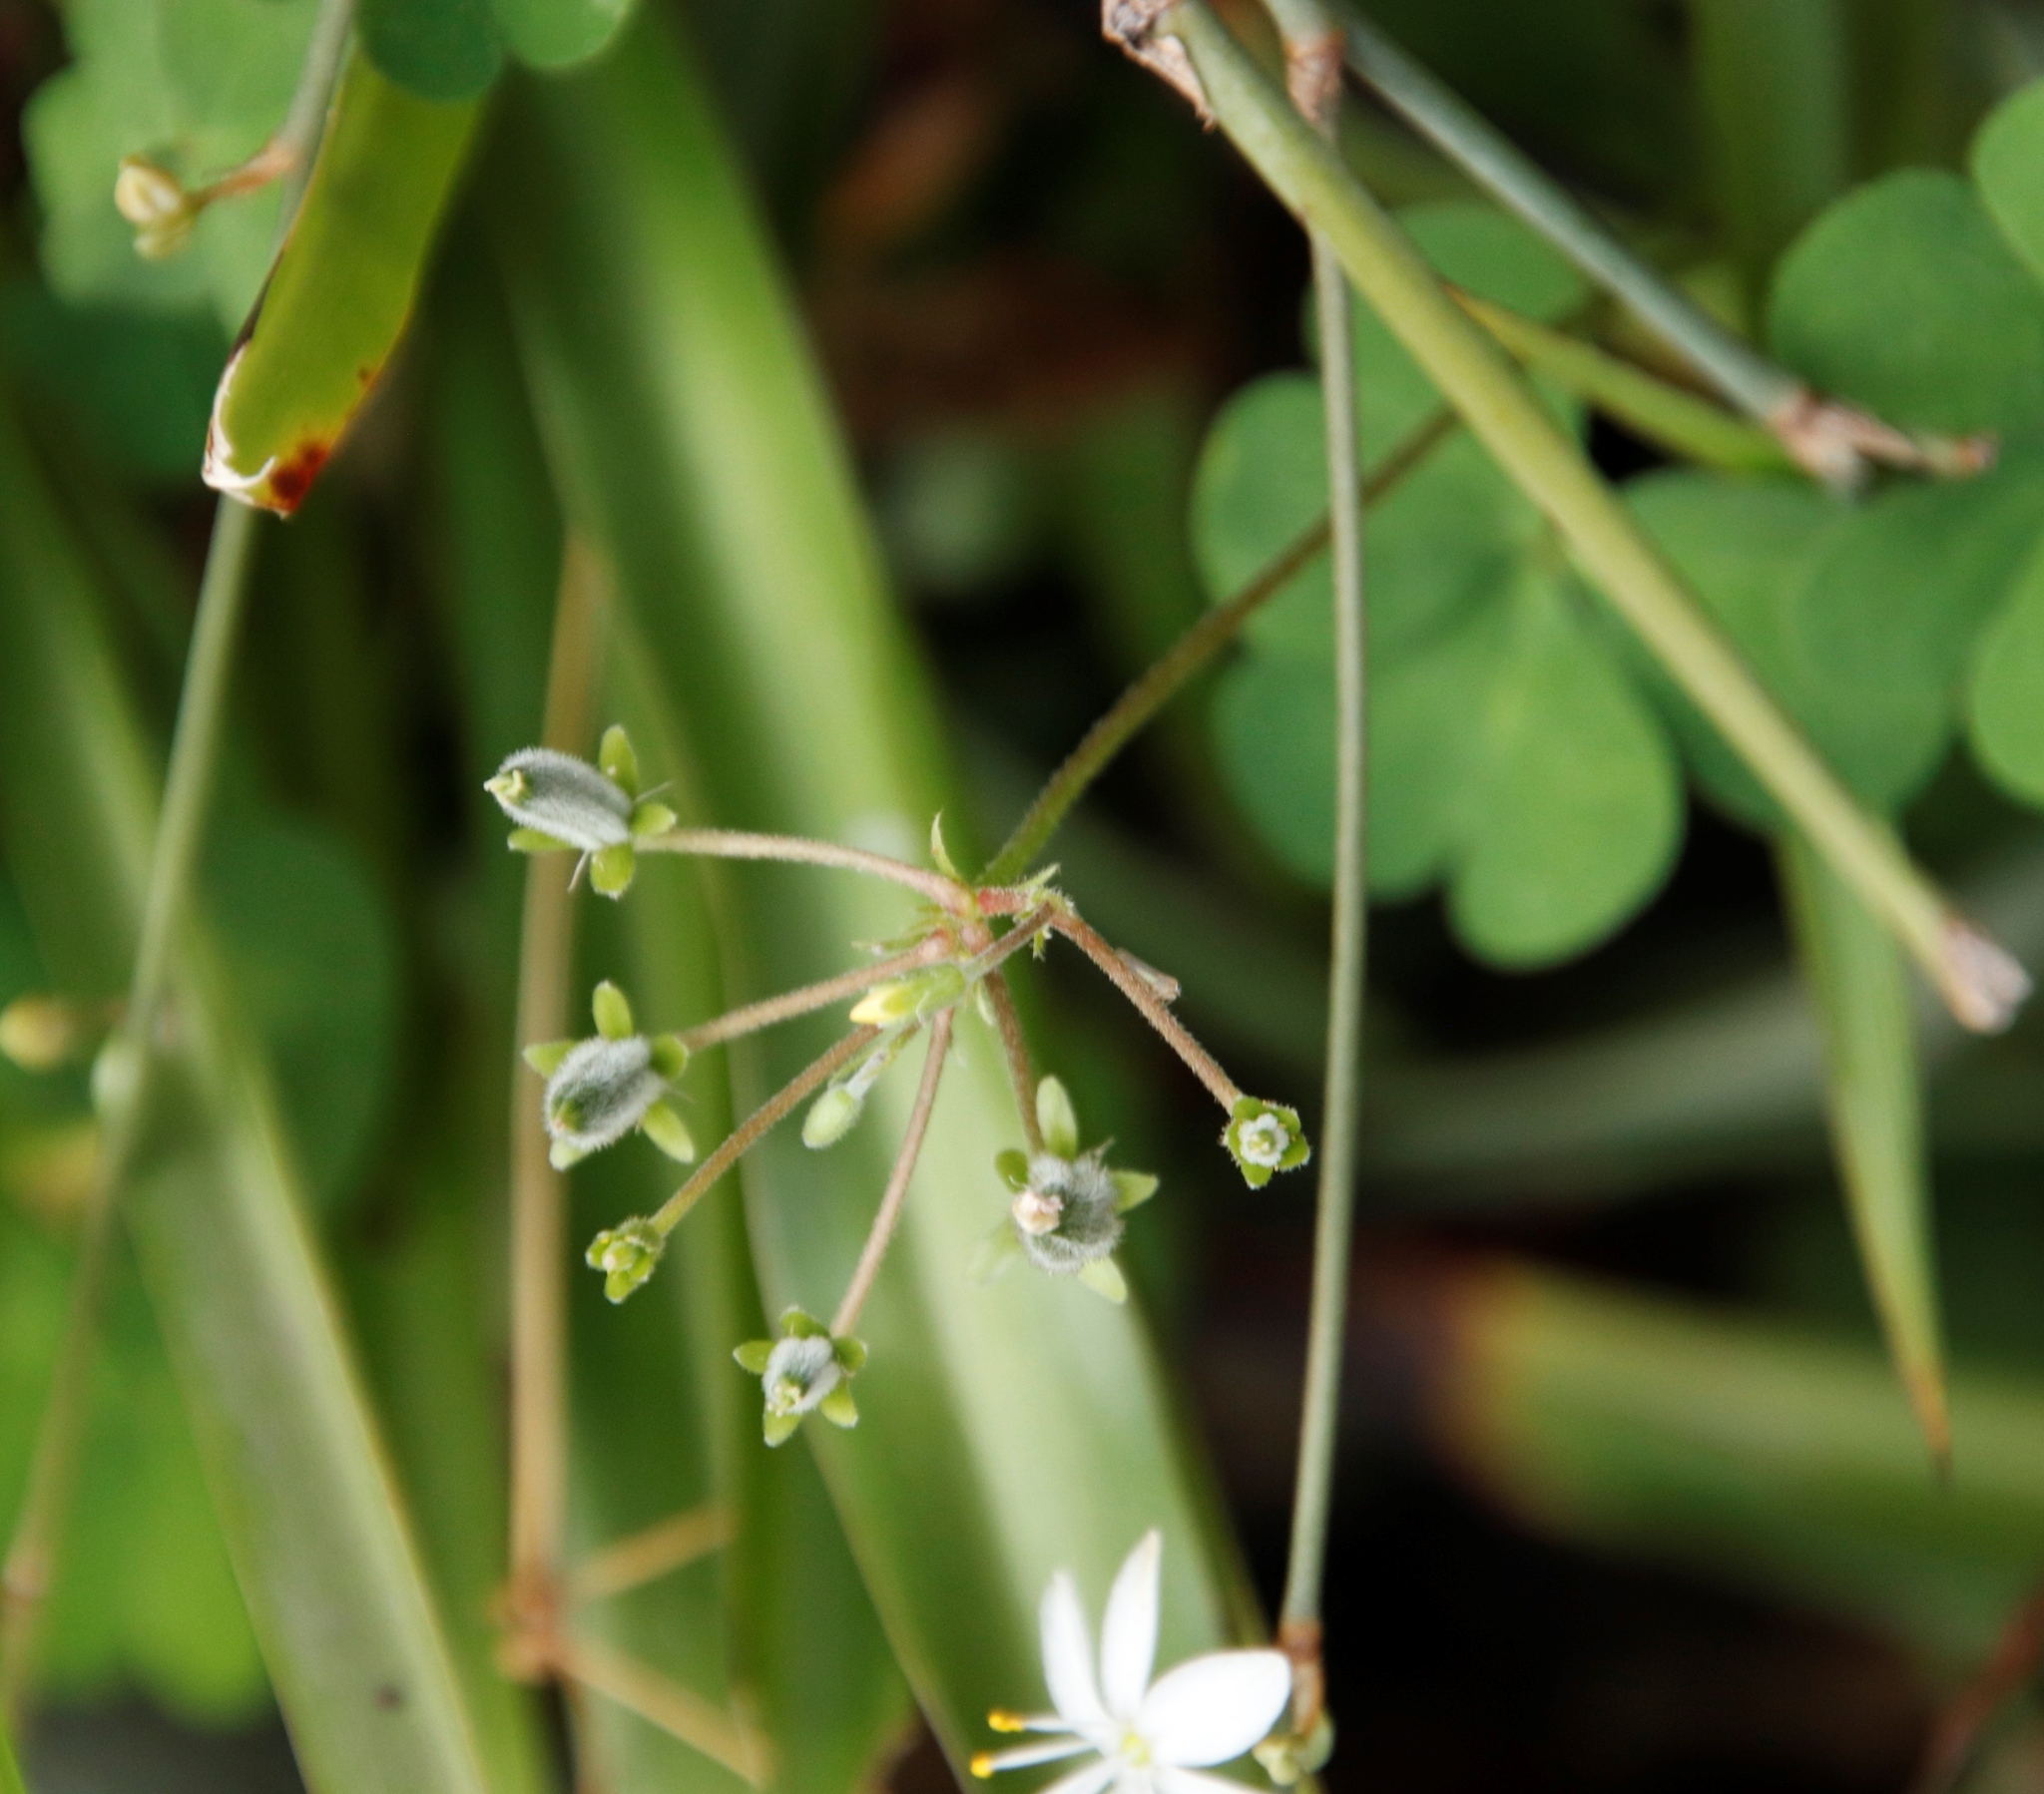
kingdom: Plantae
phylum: Tracheophyta
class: Magnoliopsida
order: Oxalidales
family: Oxalidaceae
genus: Oxalis
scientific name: Oxalis corniculata
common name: Procumbent yellow-sorrel
